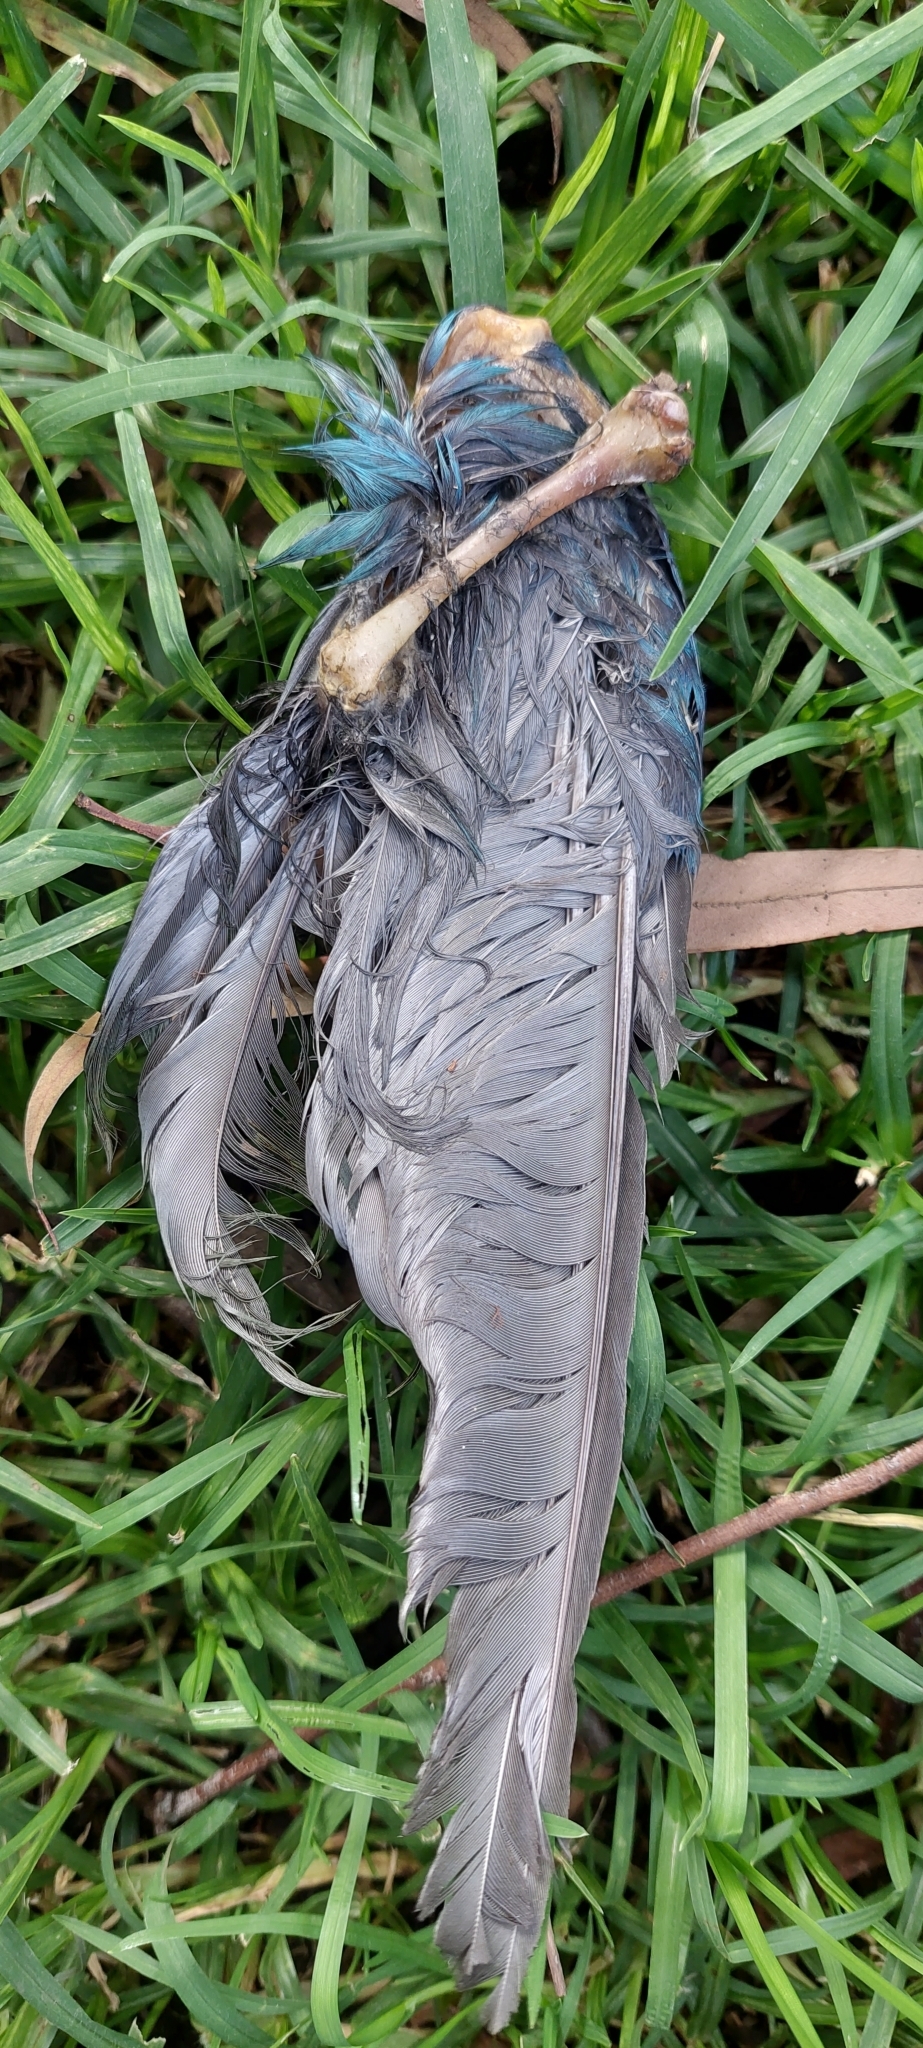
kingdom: Animalia
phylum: Chordata
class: Aves
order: Gruiformes
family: Rallidae
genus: Porphyrio
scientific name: Porphyrio martinica
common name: Purple gallinule
